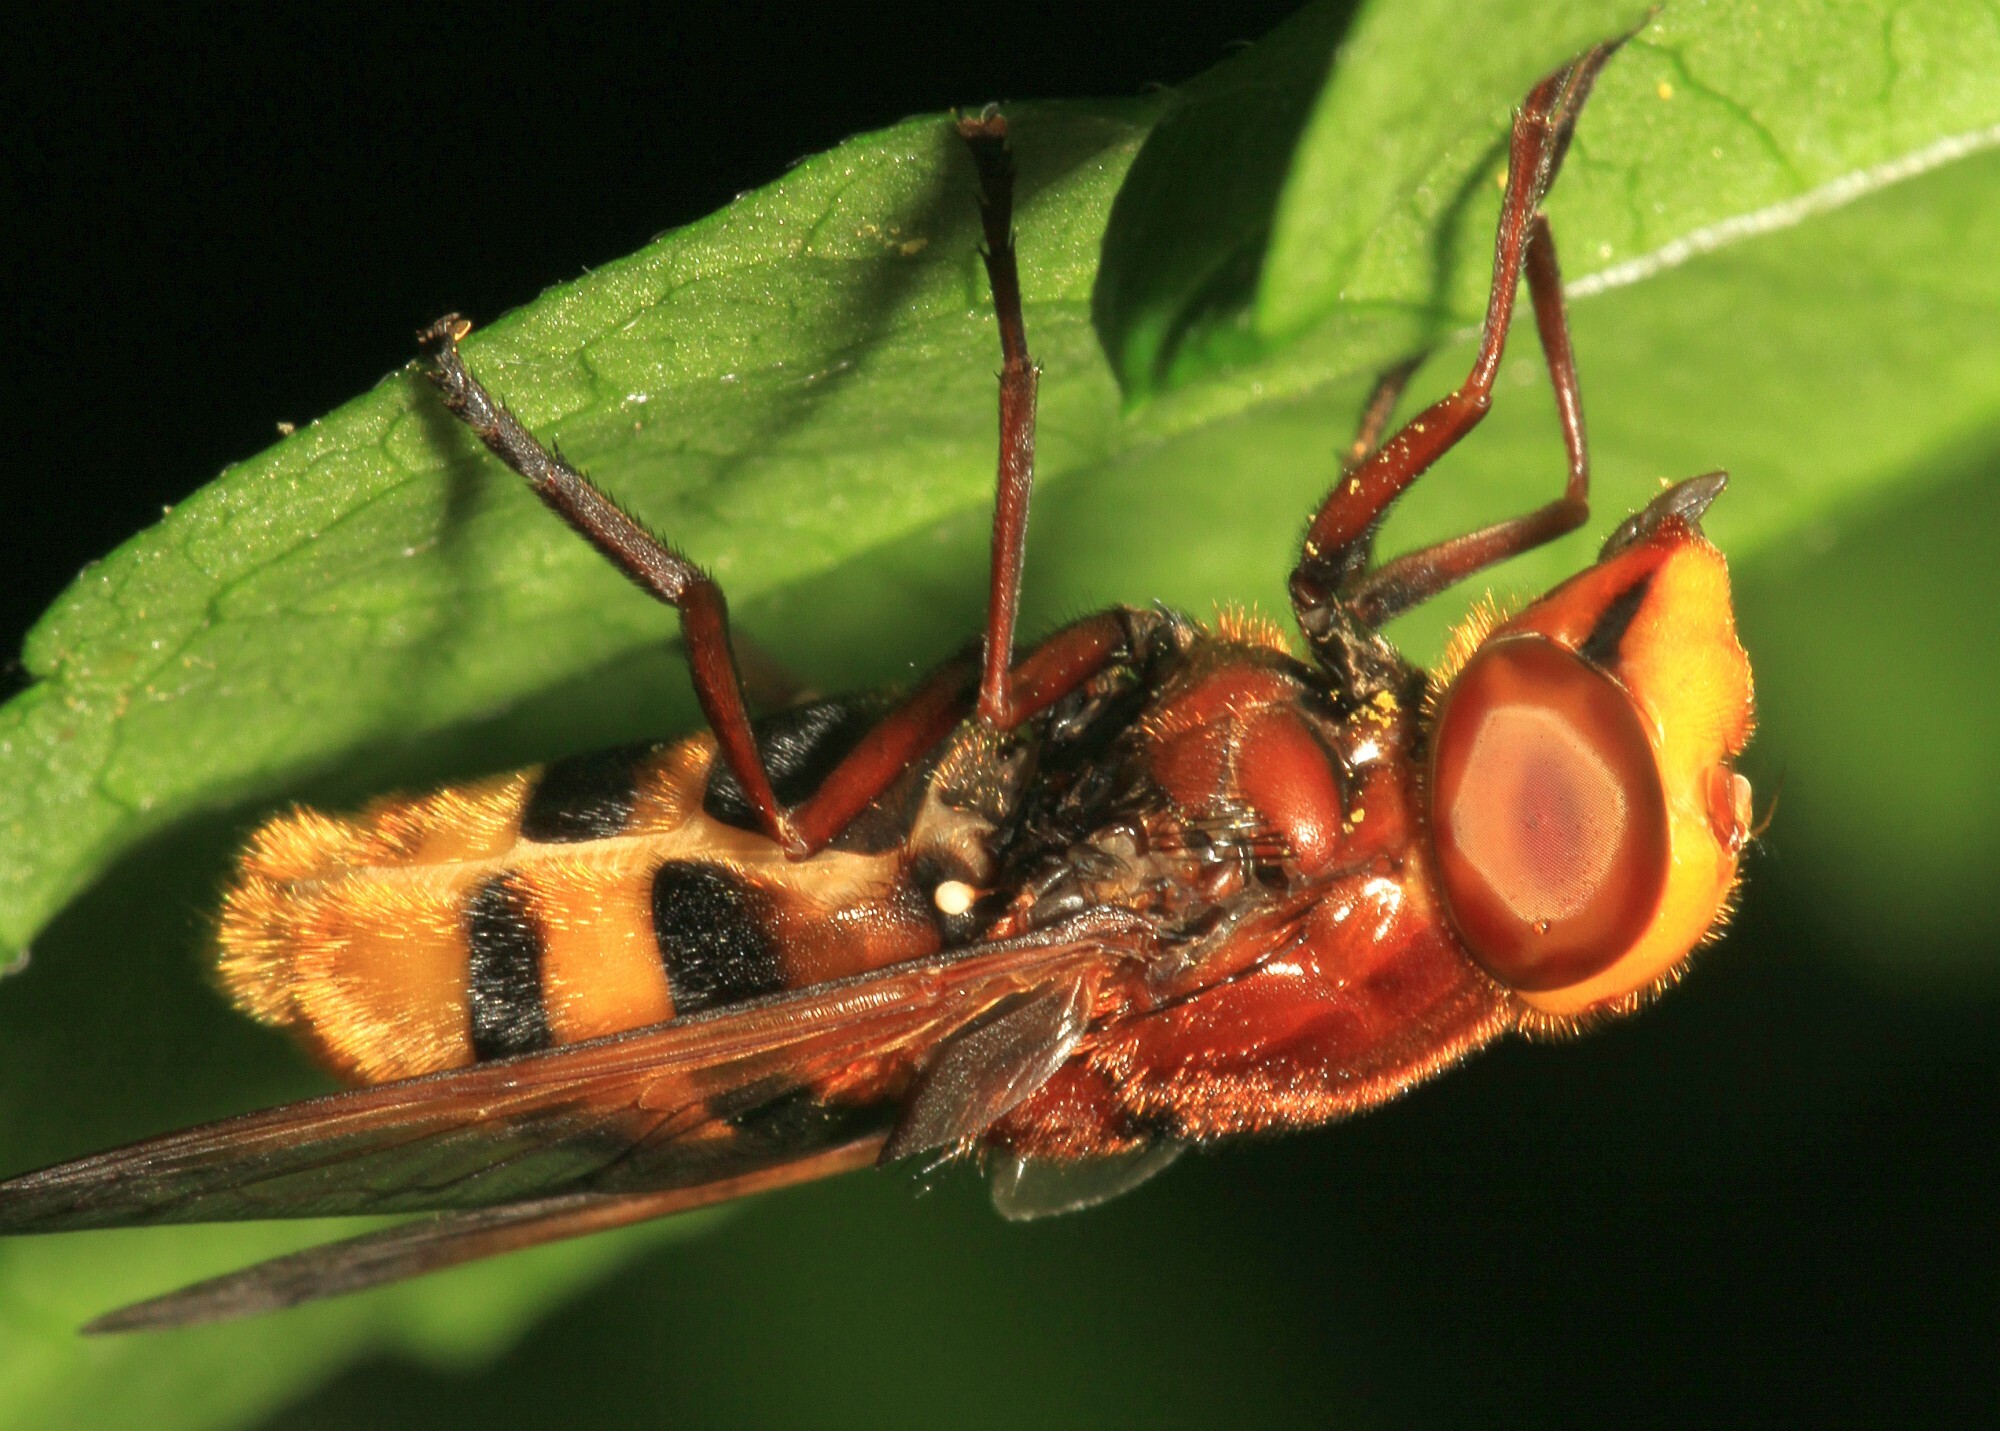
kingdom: Animalia
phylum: Arthropoda
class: Insecta
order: Diptera
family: Syrphidae
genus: Volucella
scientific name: Volucella zonaria
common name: Hornet hoverfly
